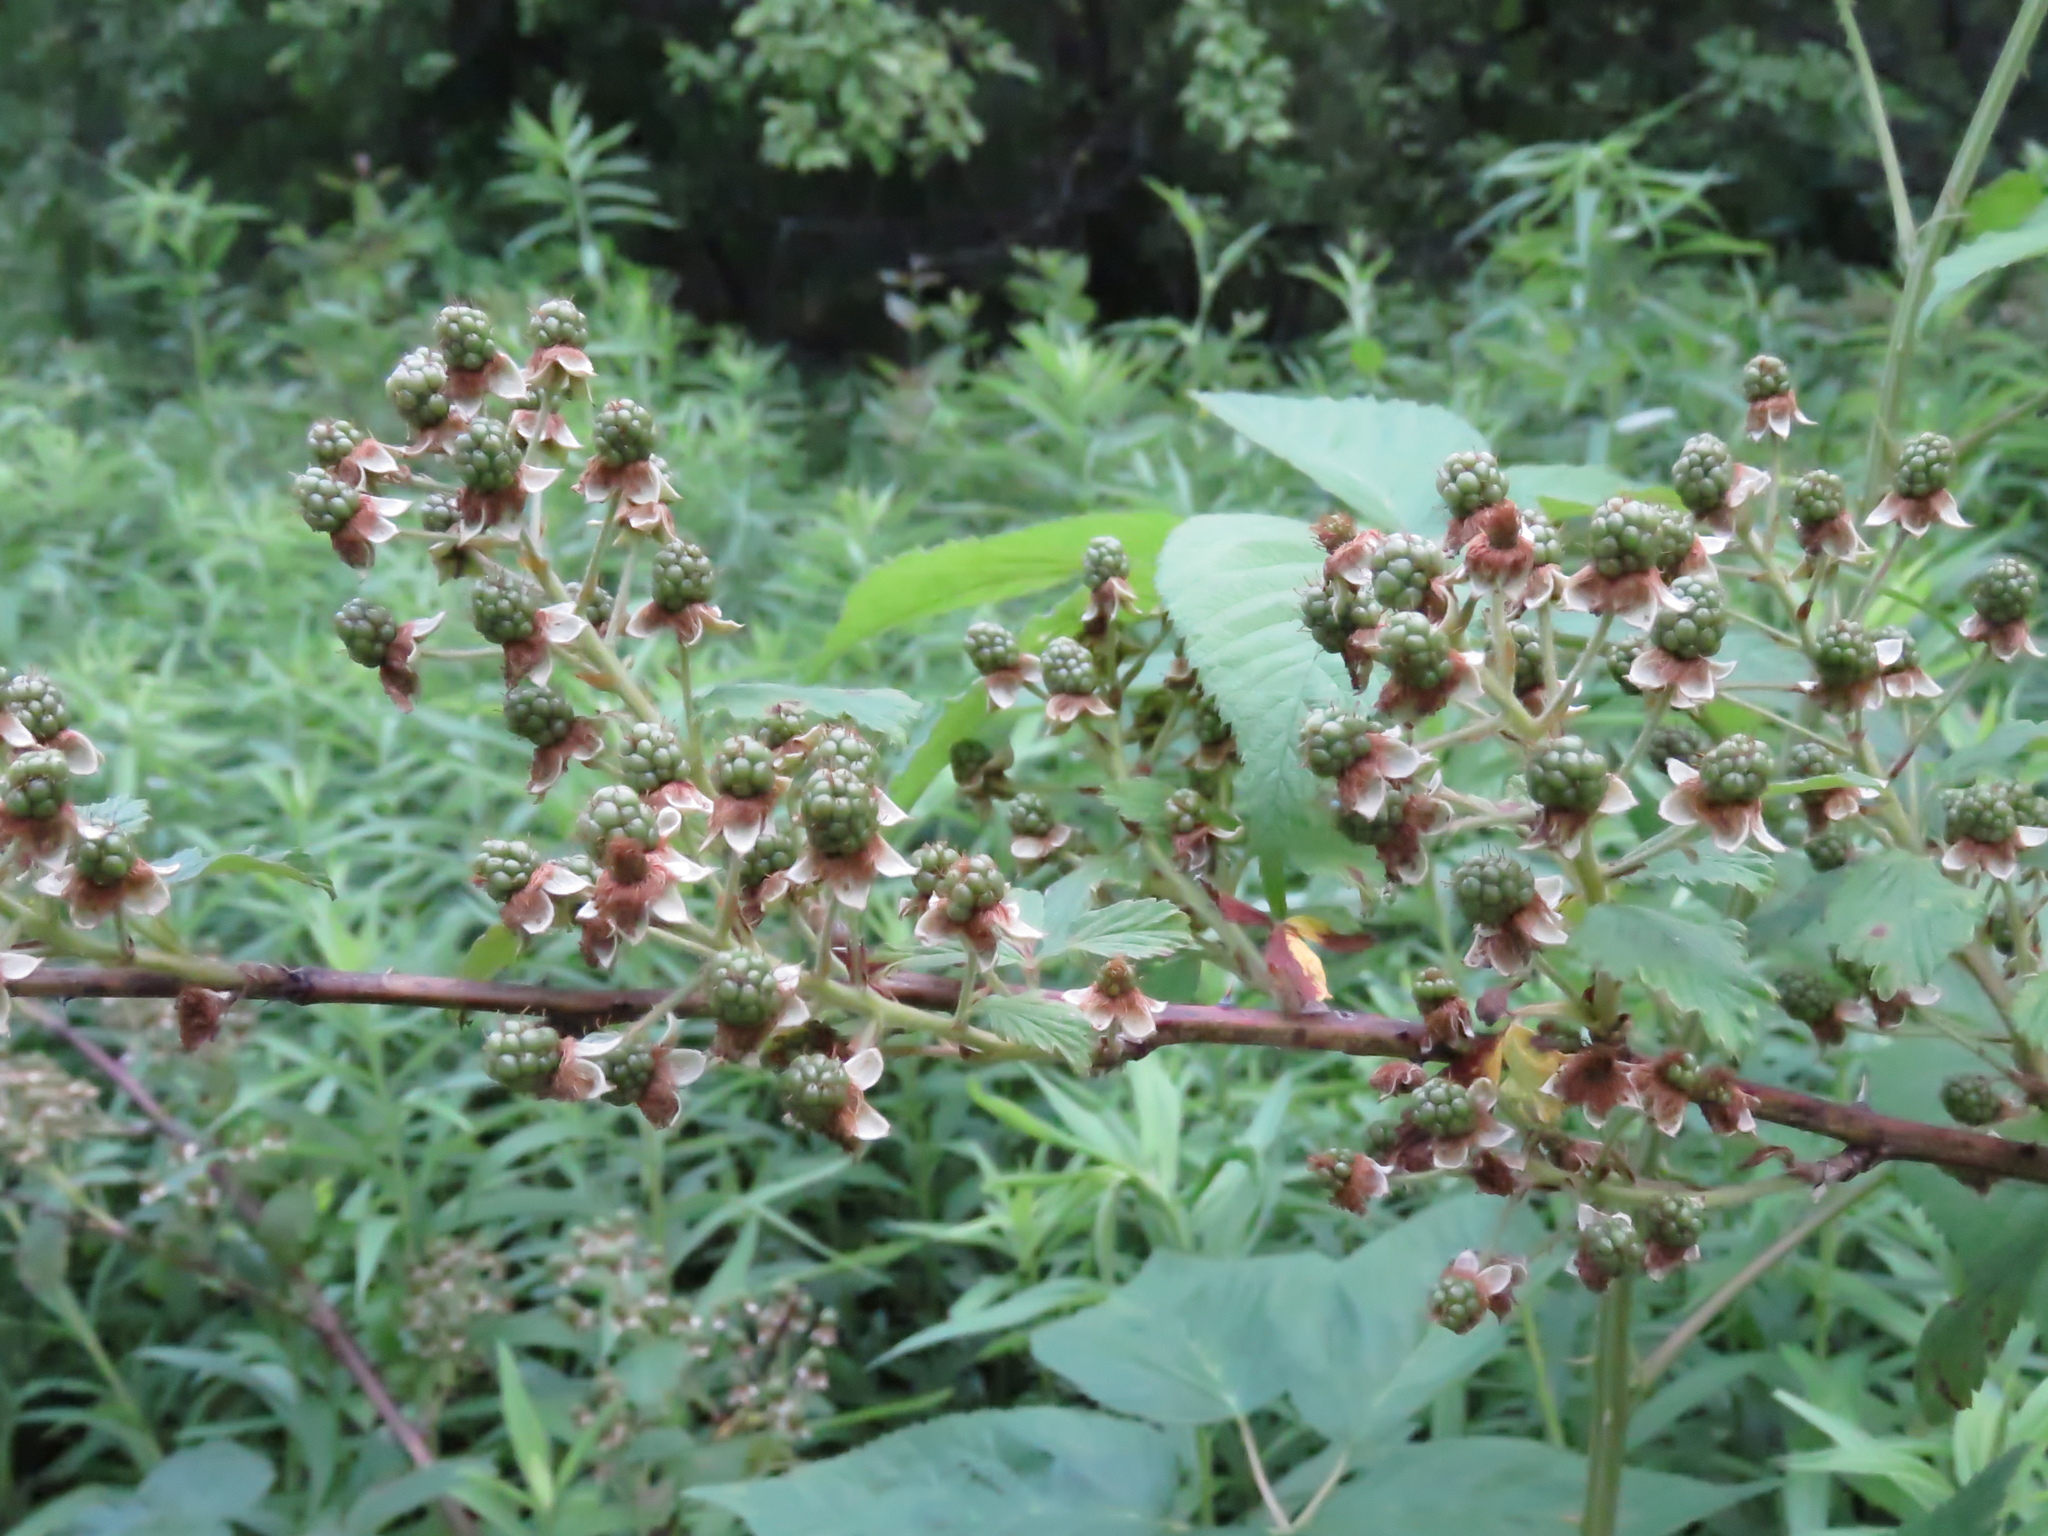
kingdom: Plantae
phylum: Tracheophyta
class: Magnoliopsida
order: Rosales
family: Rosaceae
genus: Rubus
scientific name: Rubus allegheniensis
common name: Allegheny blackberry
